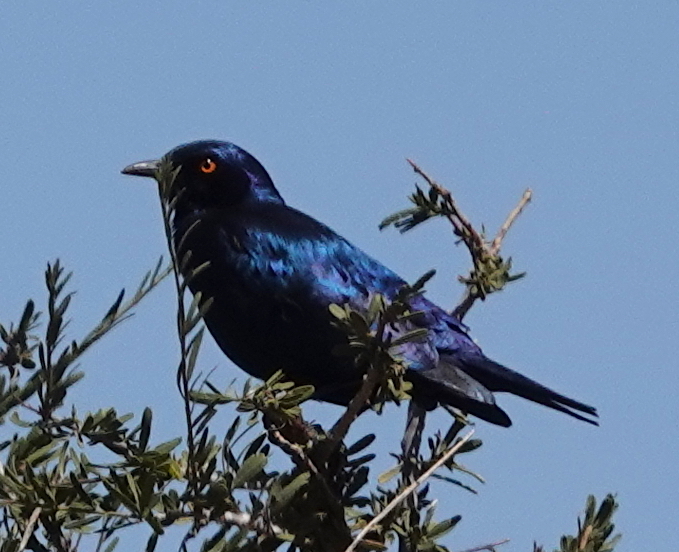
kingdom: Animalia
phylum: Chordata
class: Aves
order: Passeriformes
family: Sturnidae
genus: Lamprotornis
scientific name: Lamprotornis nitens
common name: Cape starling
